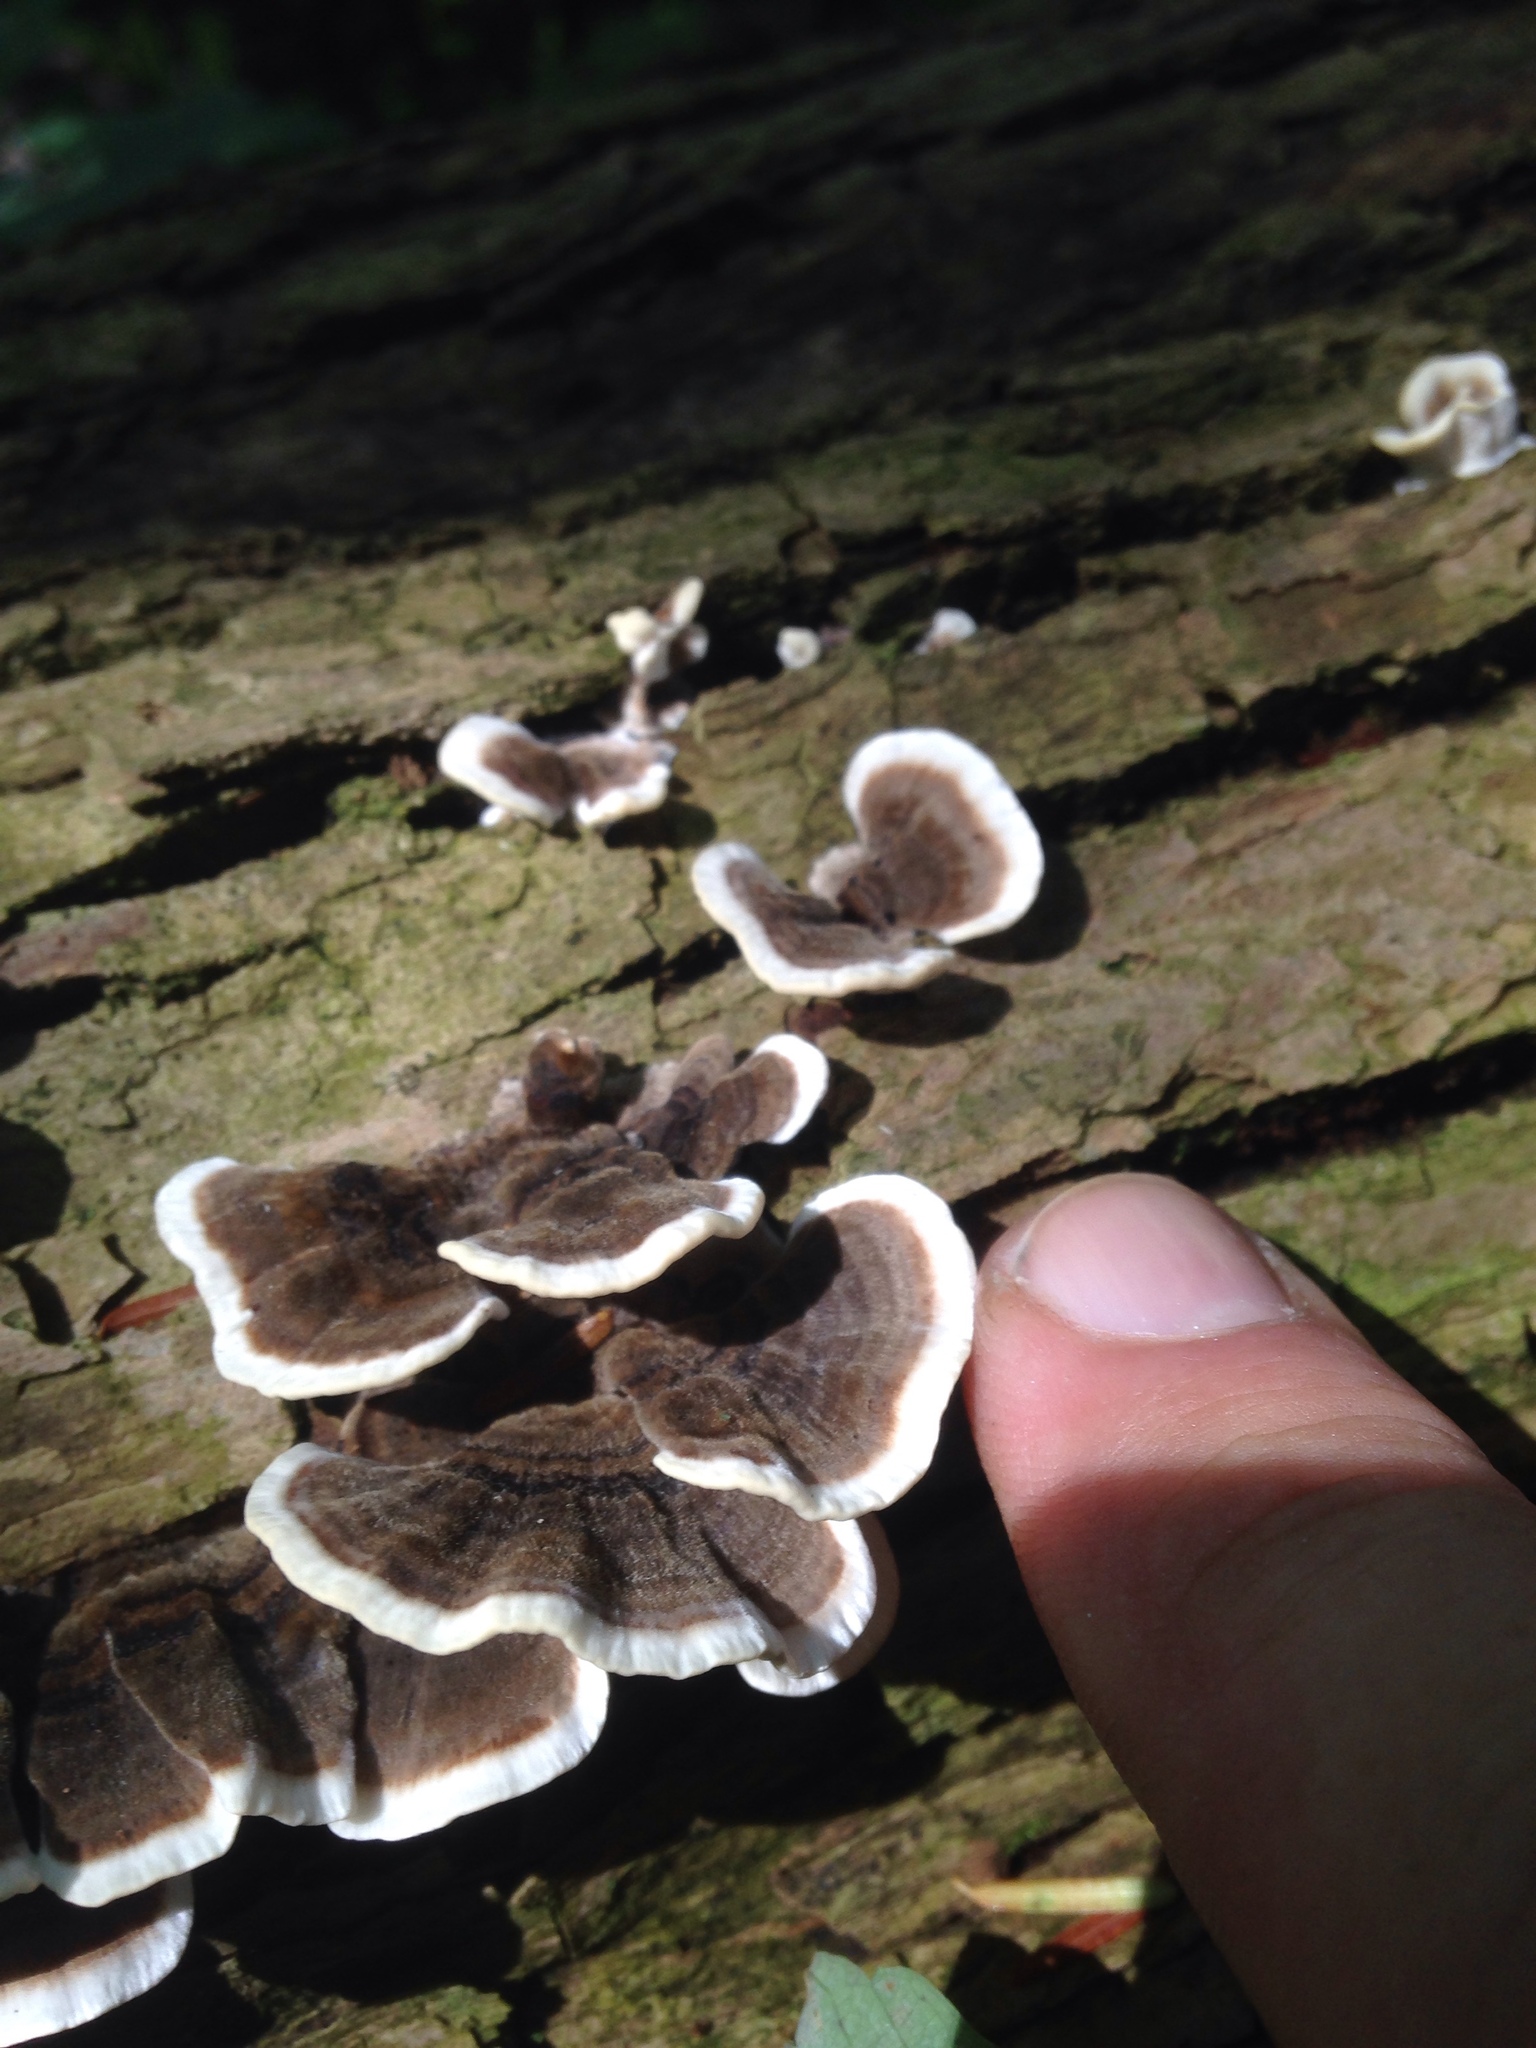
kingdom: Fungi
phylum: Basidiomycota
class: Agaricomycetes
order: Polyporales
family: Polyporaceae
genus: Trametes
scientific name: Trametes versicolor
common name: Turkeytail
